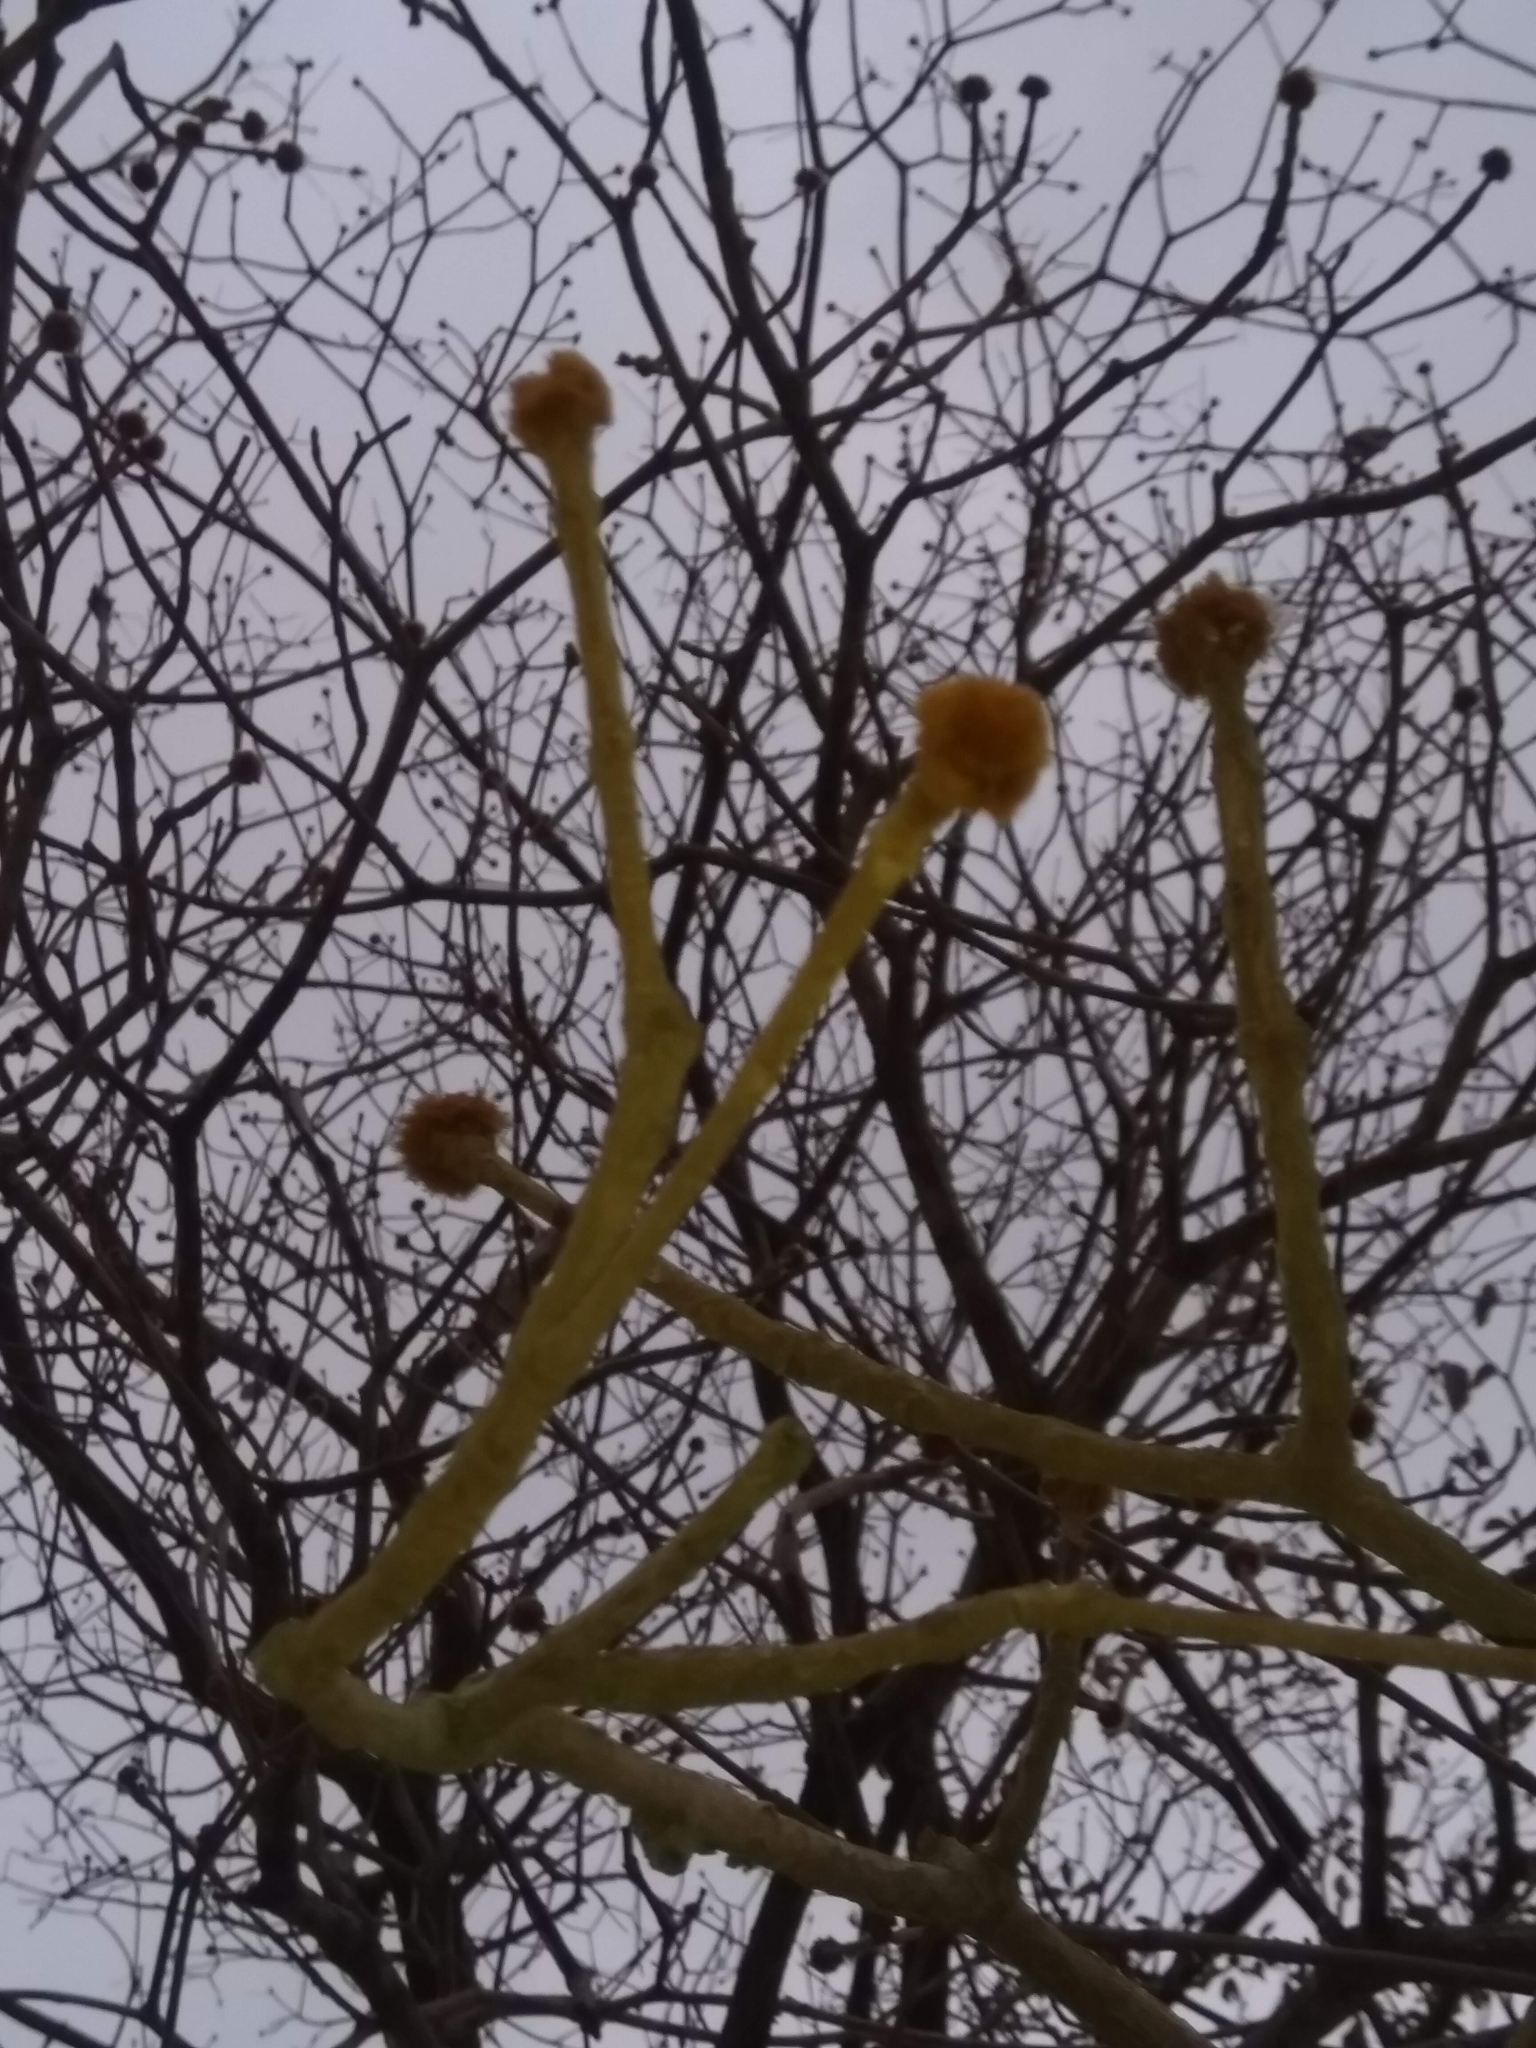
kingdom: Plantae
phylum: Tracheophyta
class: Magnoliopsida
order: Lamiales
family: Bignoniaceae
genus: Handroanthus
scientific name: Handroanthus chrysanthus
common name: Trumpet trees
